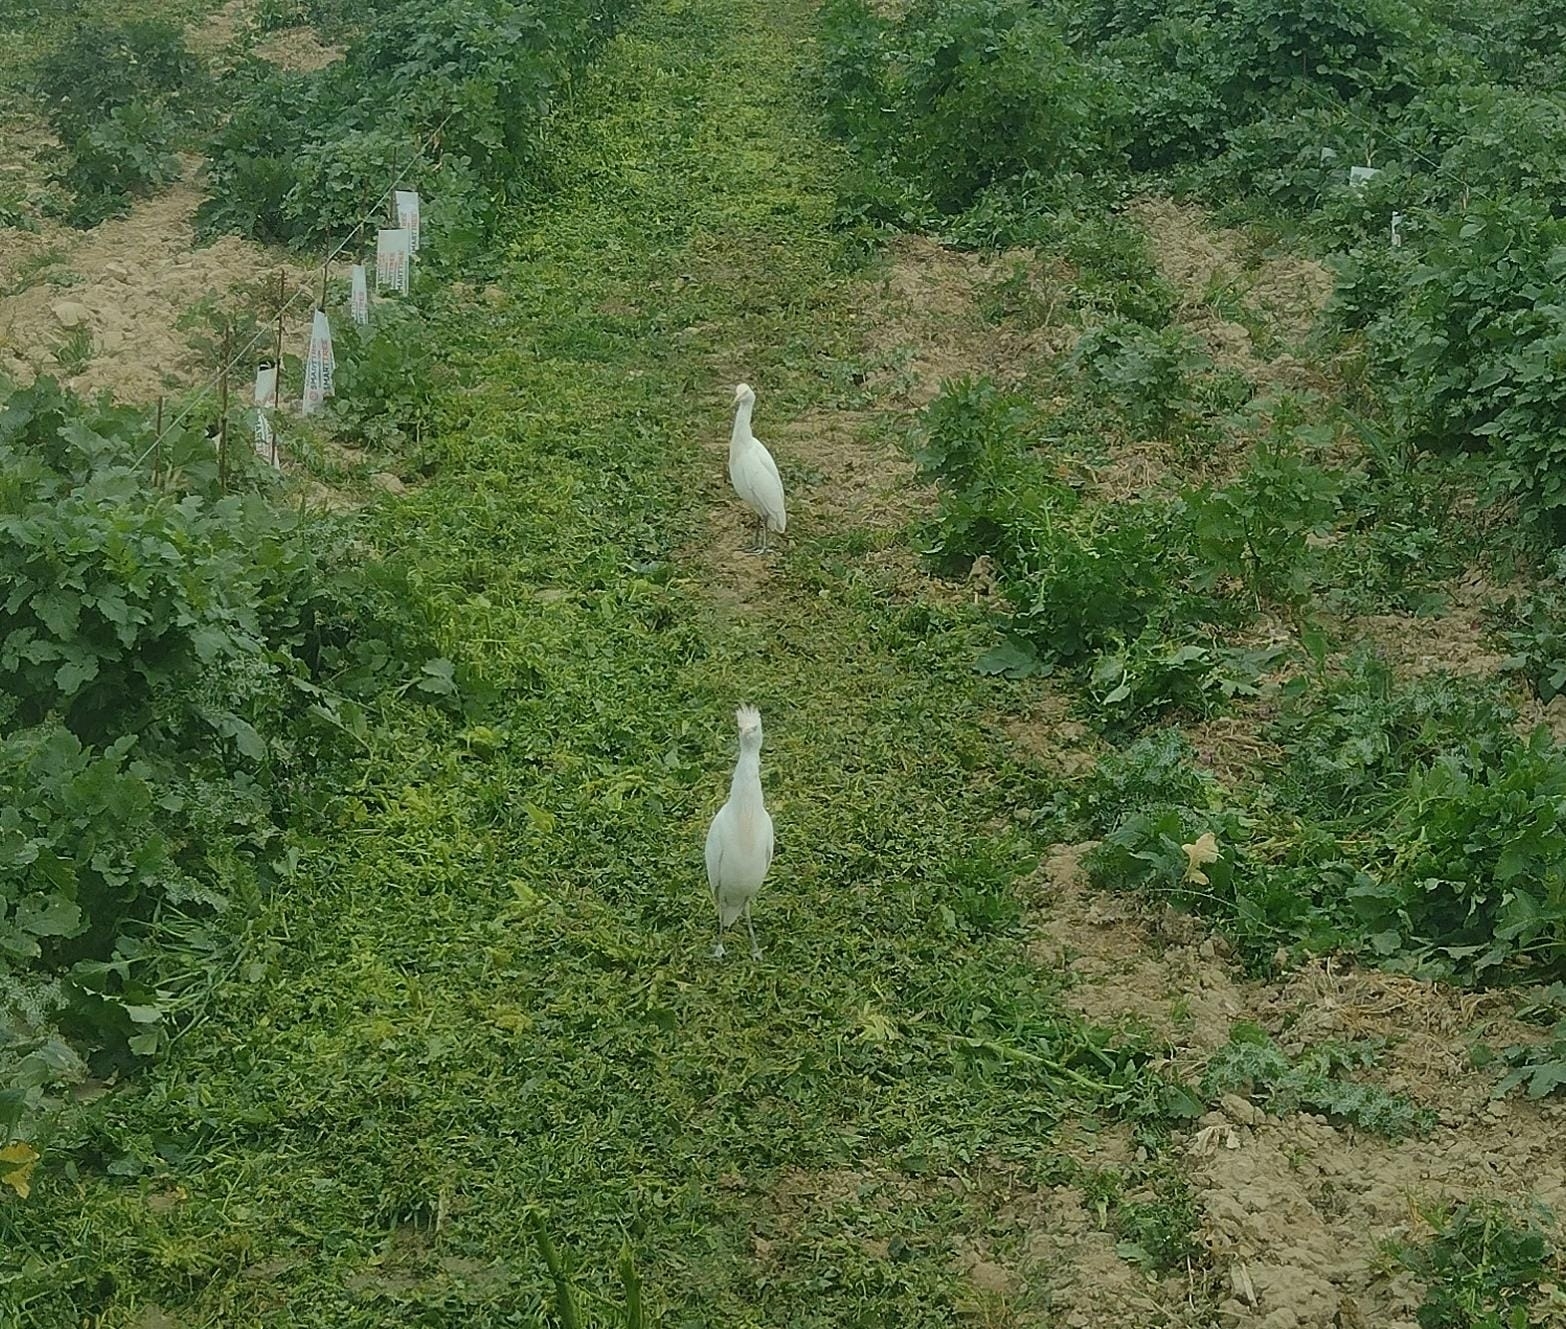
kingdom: Animalia
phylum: Chordata
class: Aves
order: Pelecaniformes
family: Ardeidae
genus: Bubulcus
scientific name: Bubulcus ibis
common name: Cattle egret
